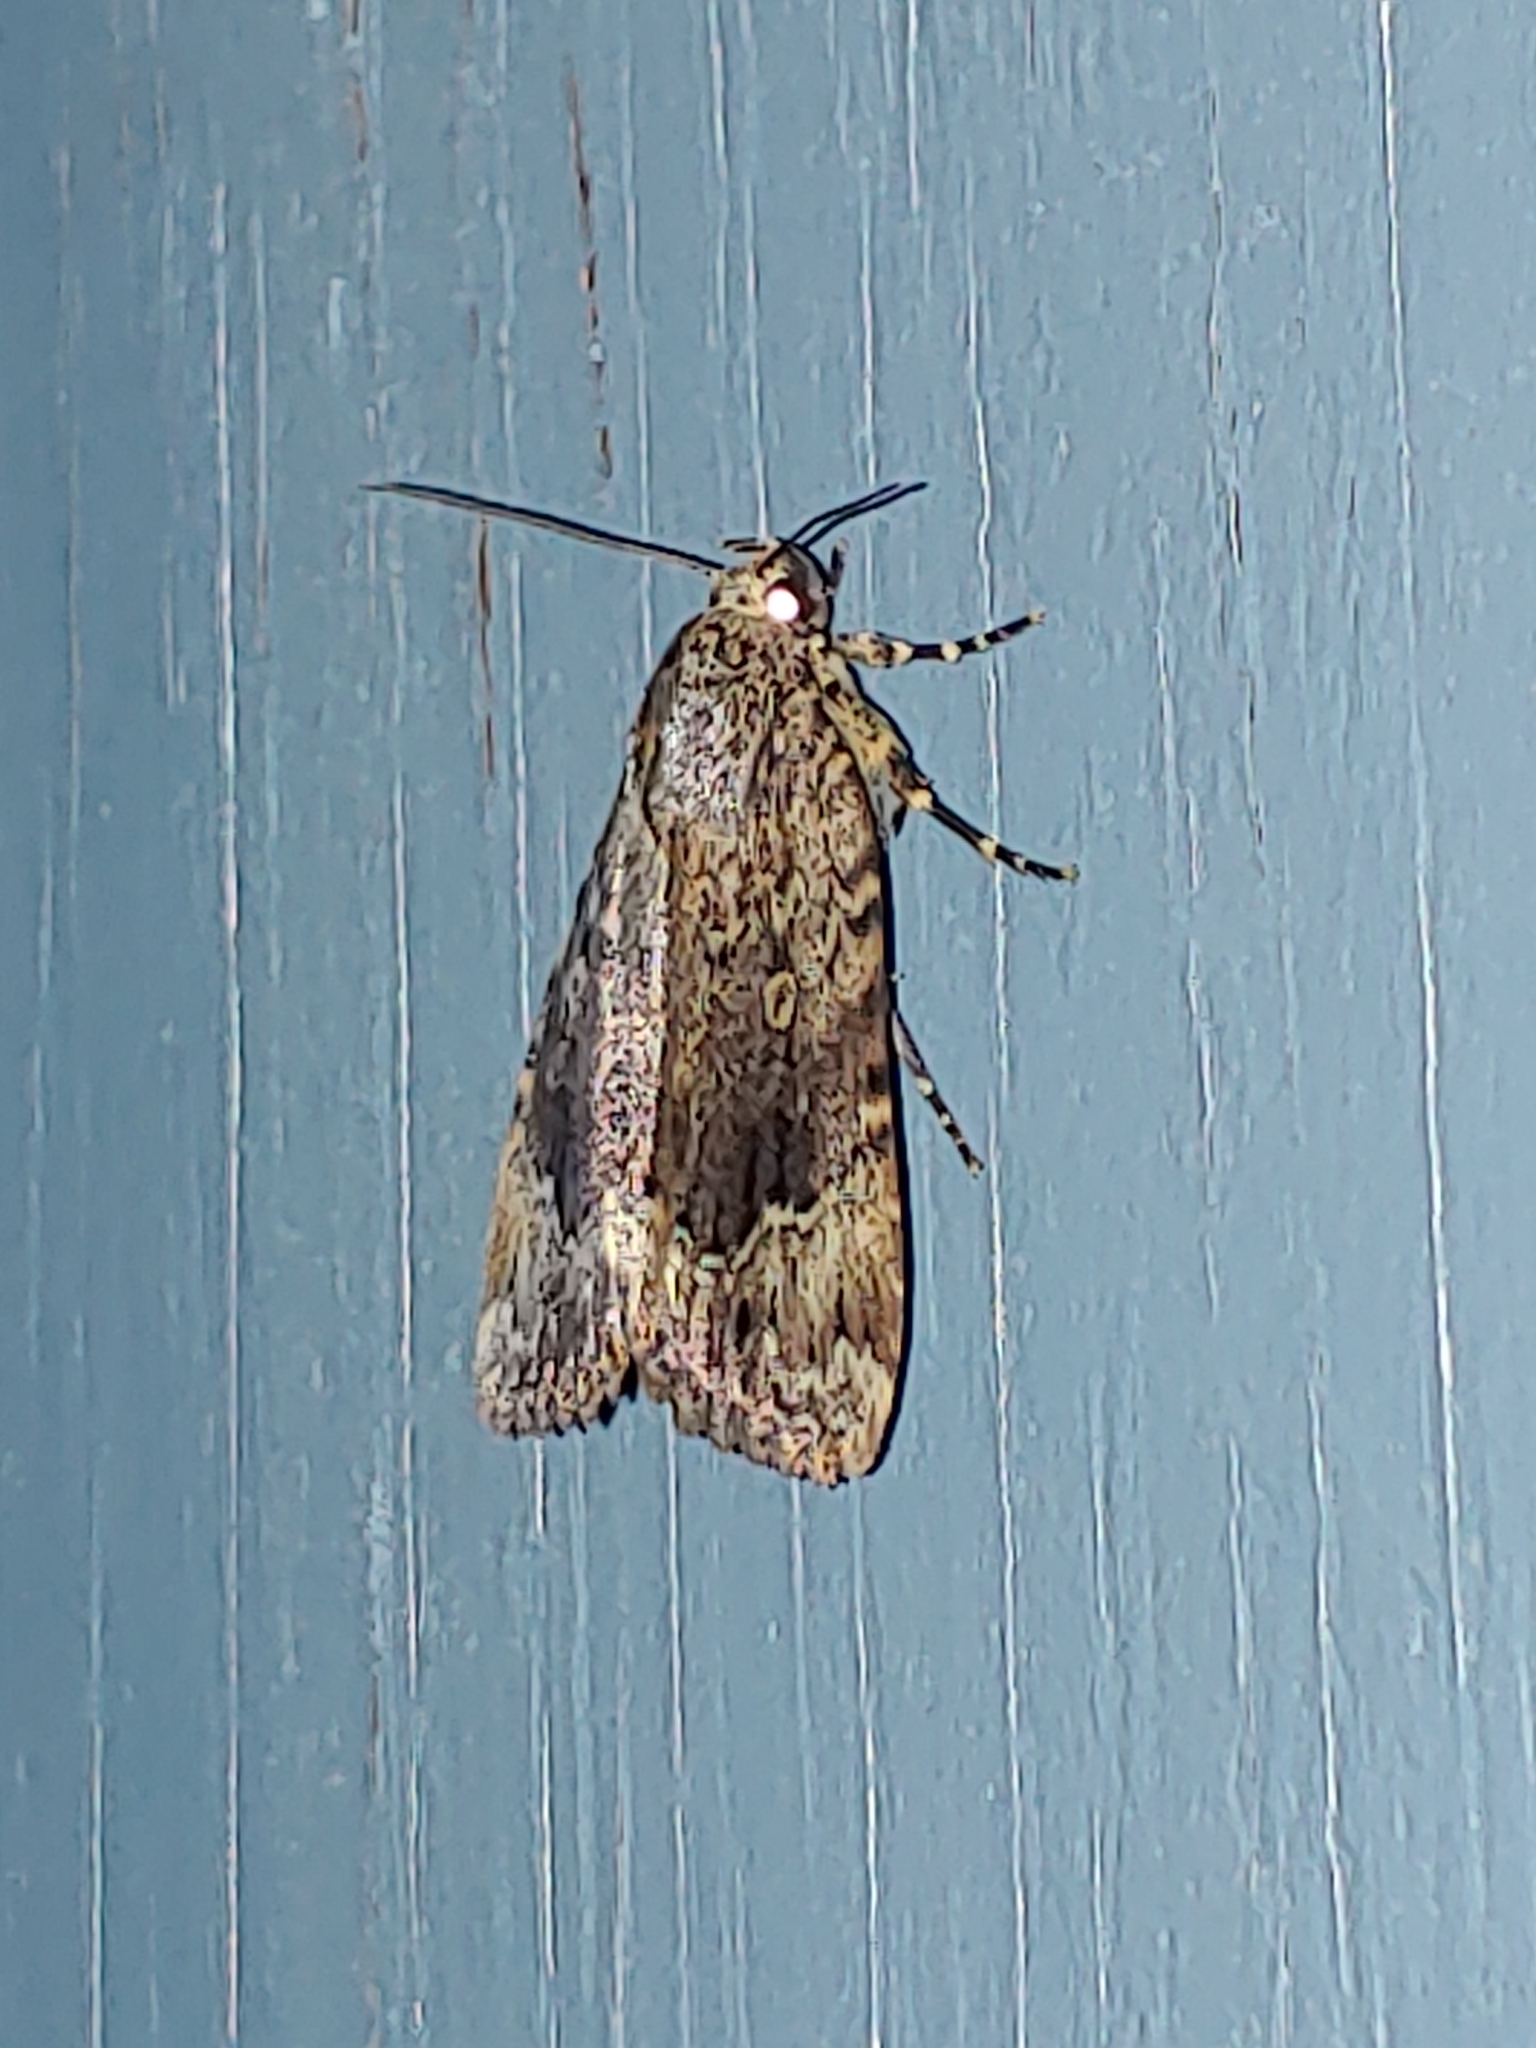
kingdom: Animalia
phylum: Arthropoda
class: Insecta
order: Lepidoptera
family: Noctuidae
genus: Amphipyra
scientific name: Amphipyra pyramidoides
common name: American copper underwing
